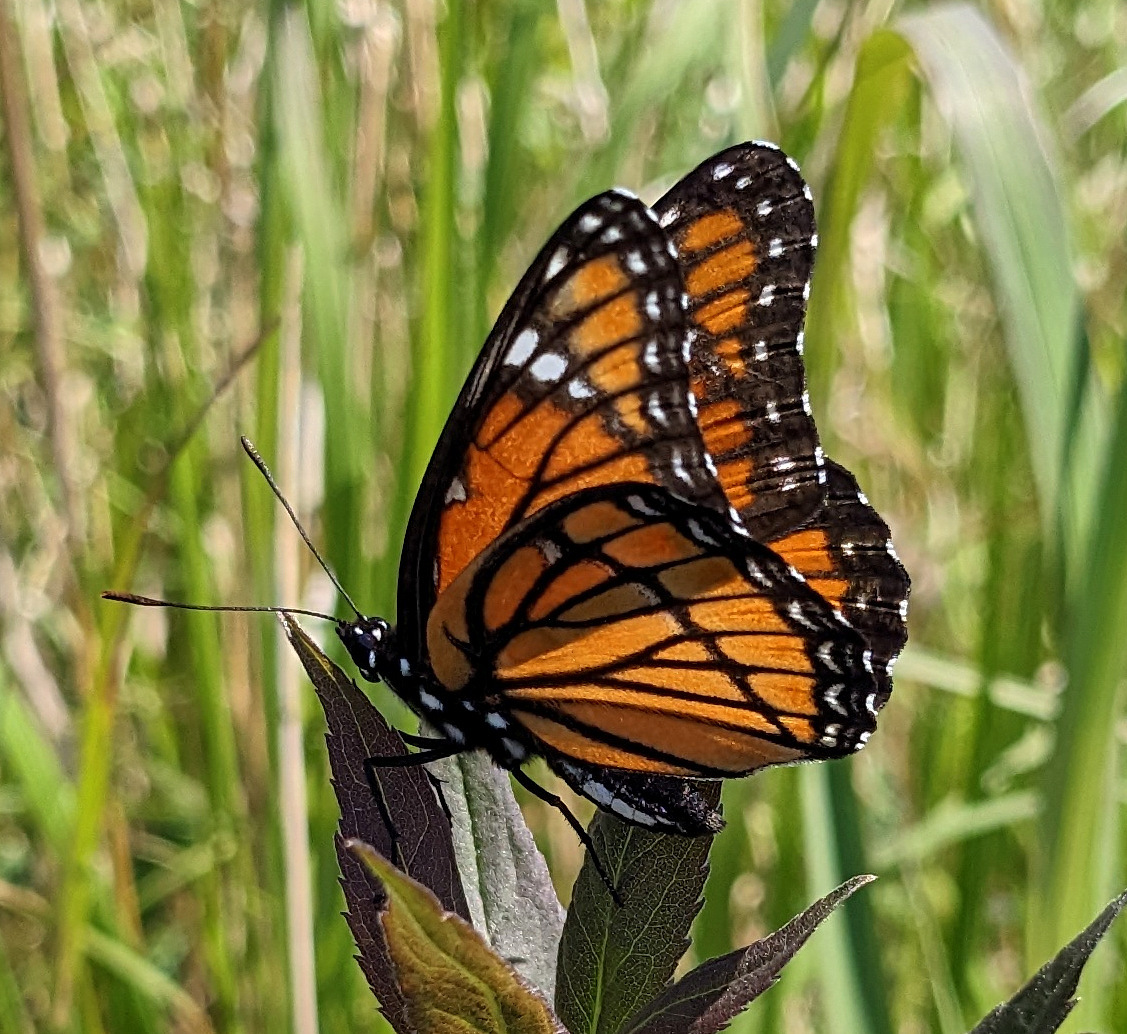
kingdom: Animalia
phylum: Arthropoda
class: Insecta
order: Lepidoptera
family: Nymphalidae
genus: Limenitis
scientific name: Limenitis archippus
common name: Viceroy
